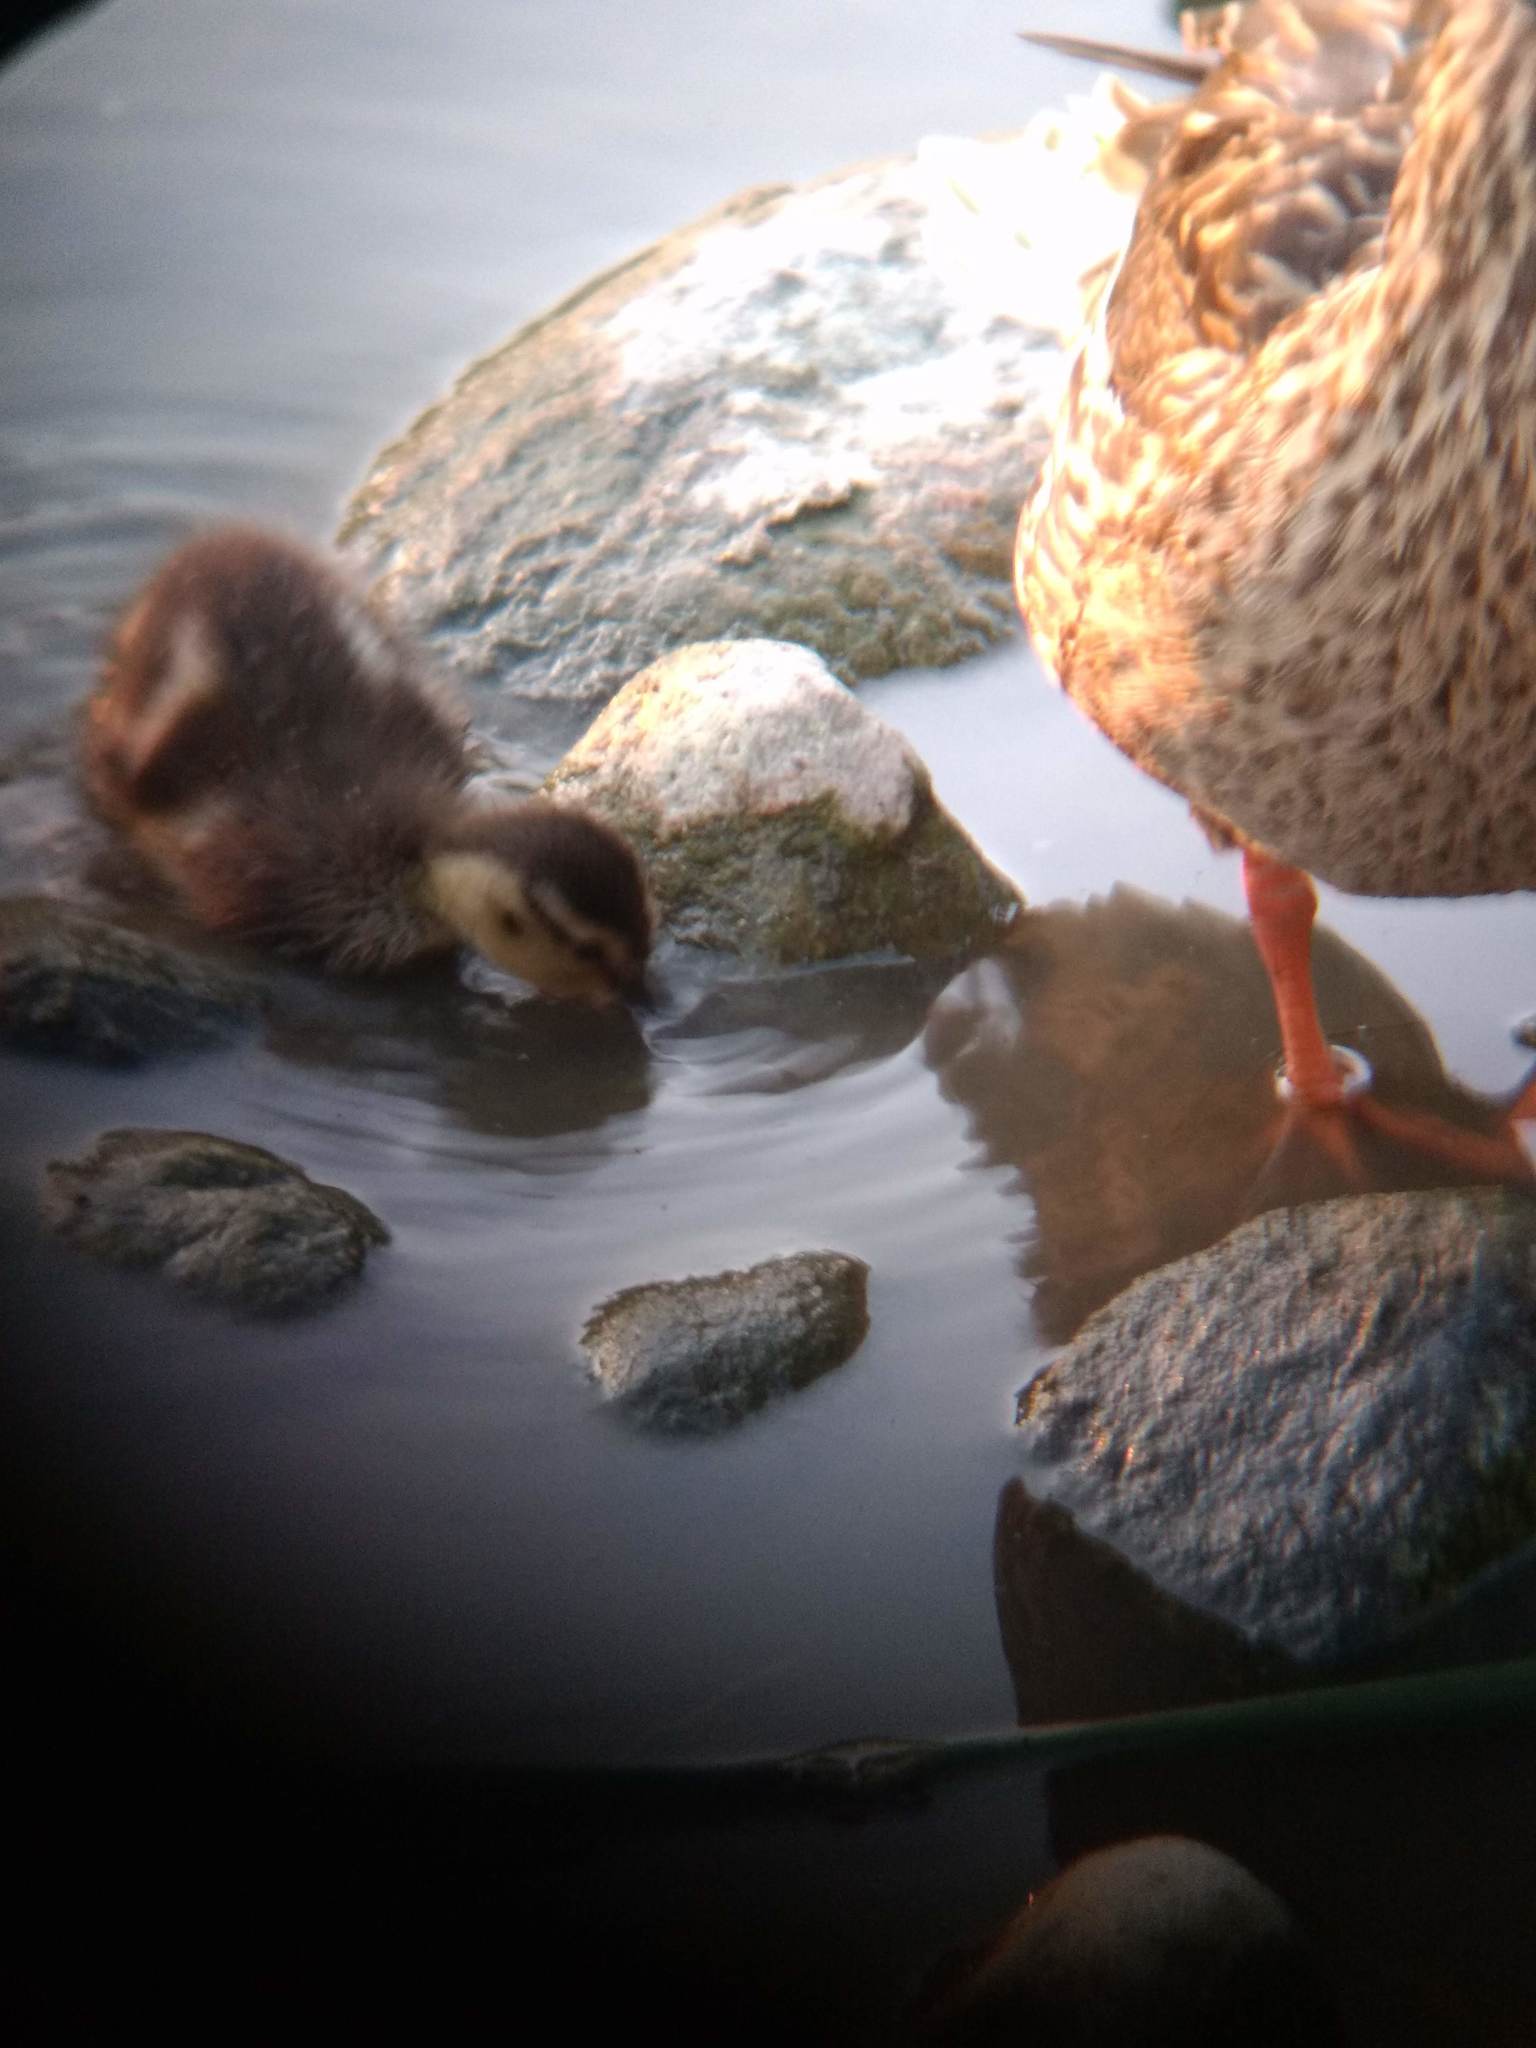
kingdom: Animalia
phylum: Chordata
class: Aves
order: Anseriformes
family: Anatidae
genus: Anas
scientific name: Anas platyrhynchos
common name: Mallard
